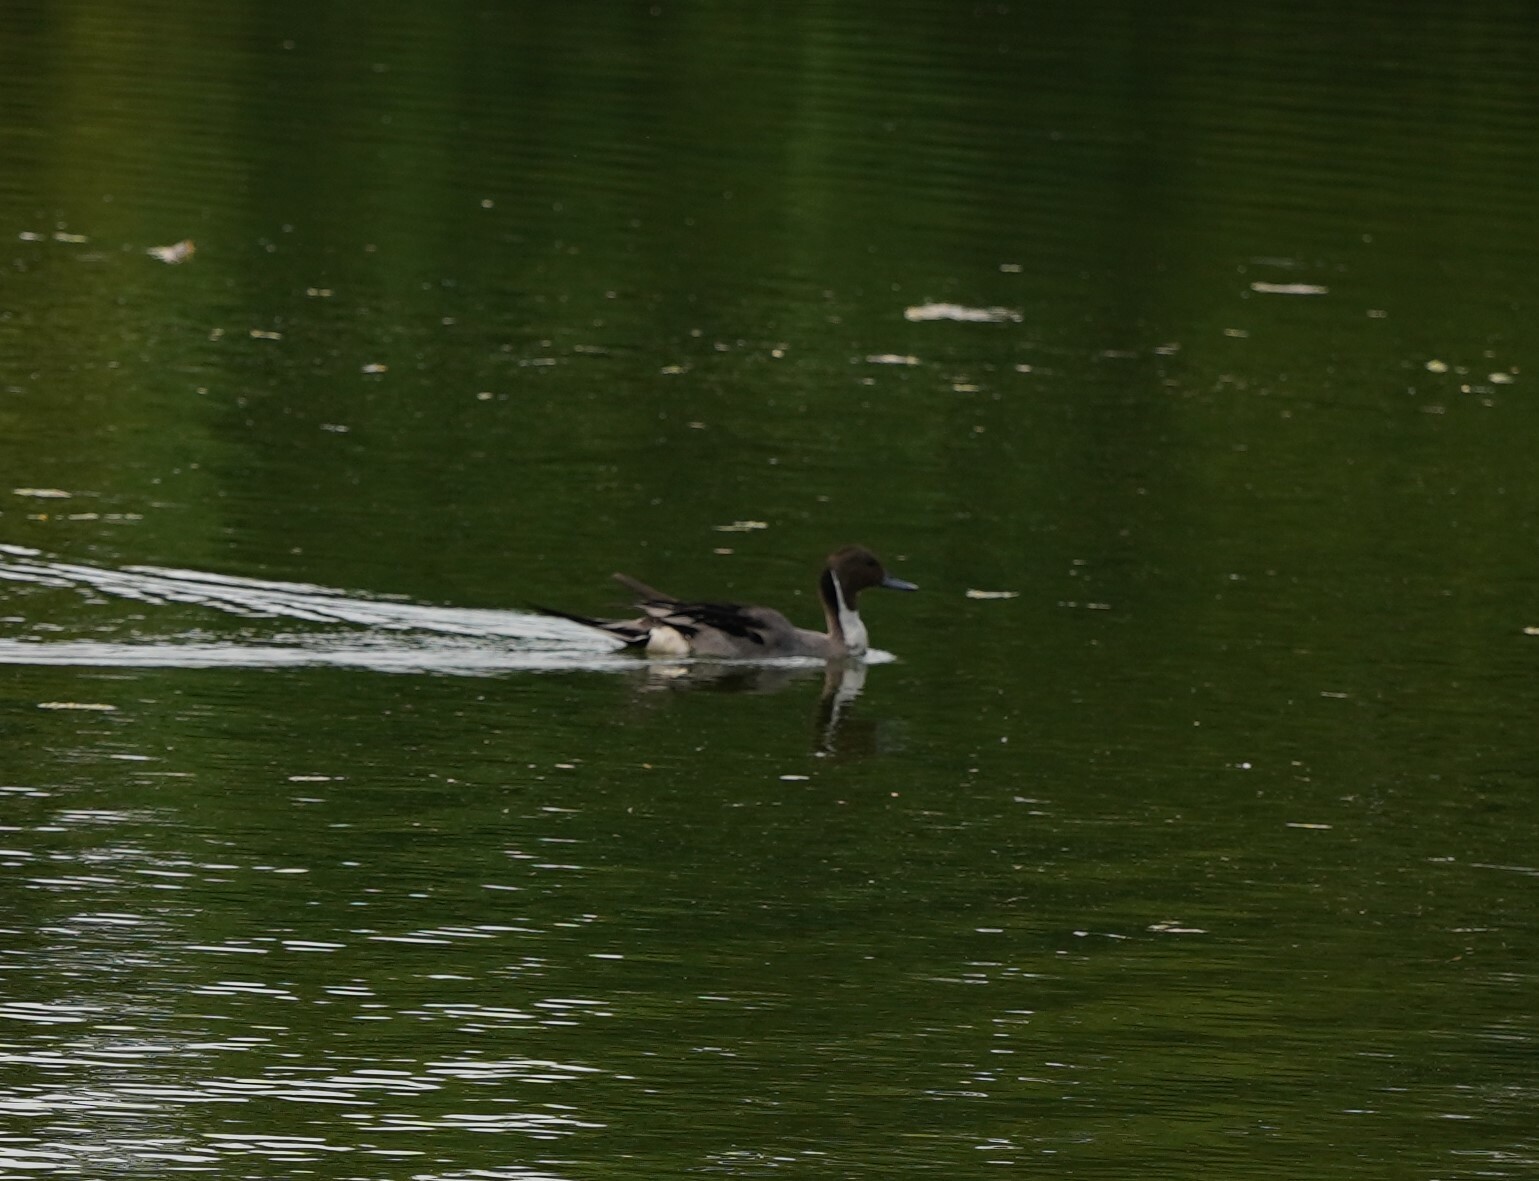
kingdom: Animalia
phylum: Chordata
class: Aves
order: Anseriformes
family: Anatidae
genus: Anas
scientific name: Anas acuta
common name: Northern pintail
